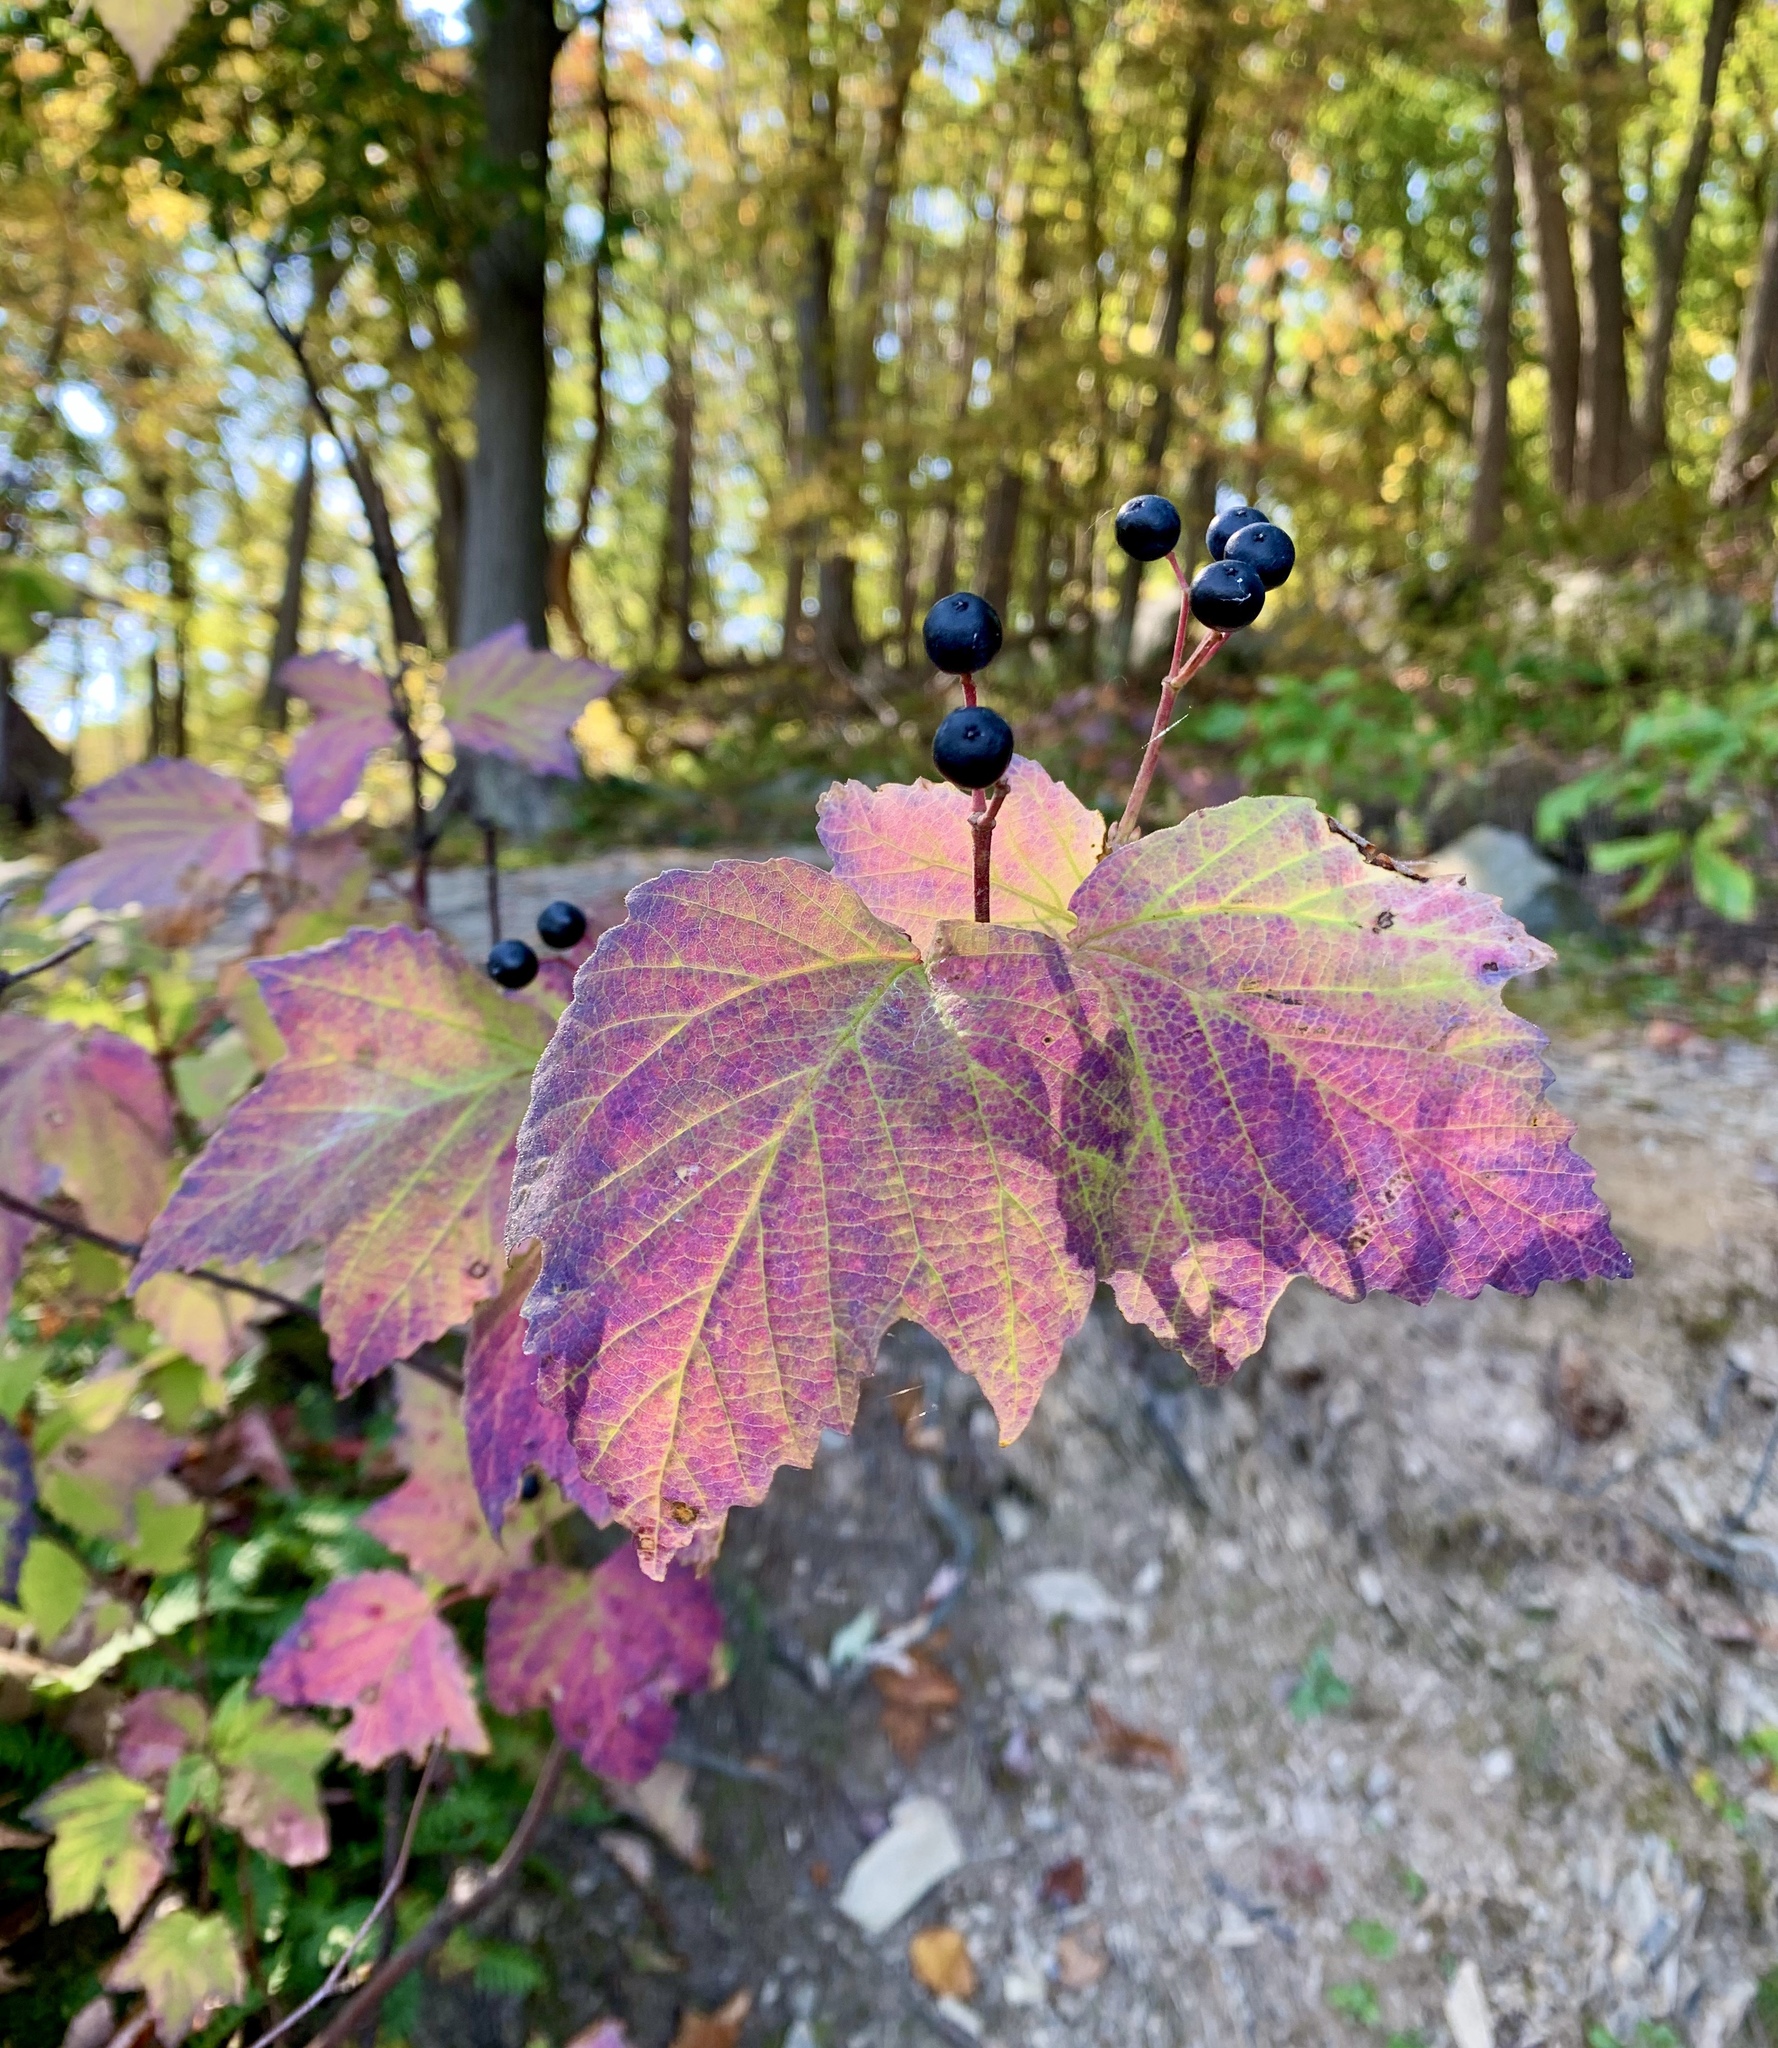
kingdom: Plantae
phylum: Tracheophyta
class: Magnoliopsida
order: Dipsacales
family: Viburnaceae
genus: Viburnum
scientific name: Viburnum acerifolium
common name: Dockmackie
